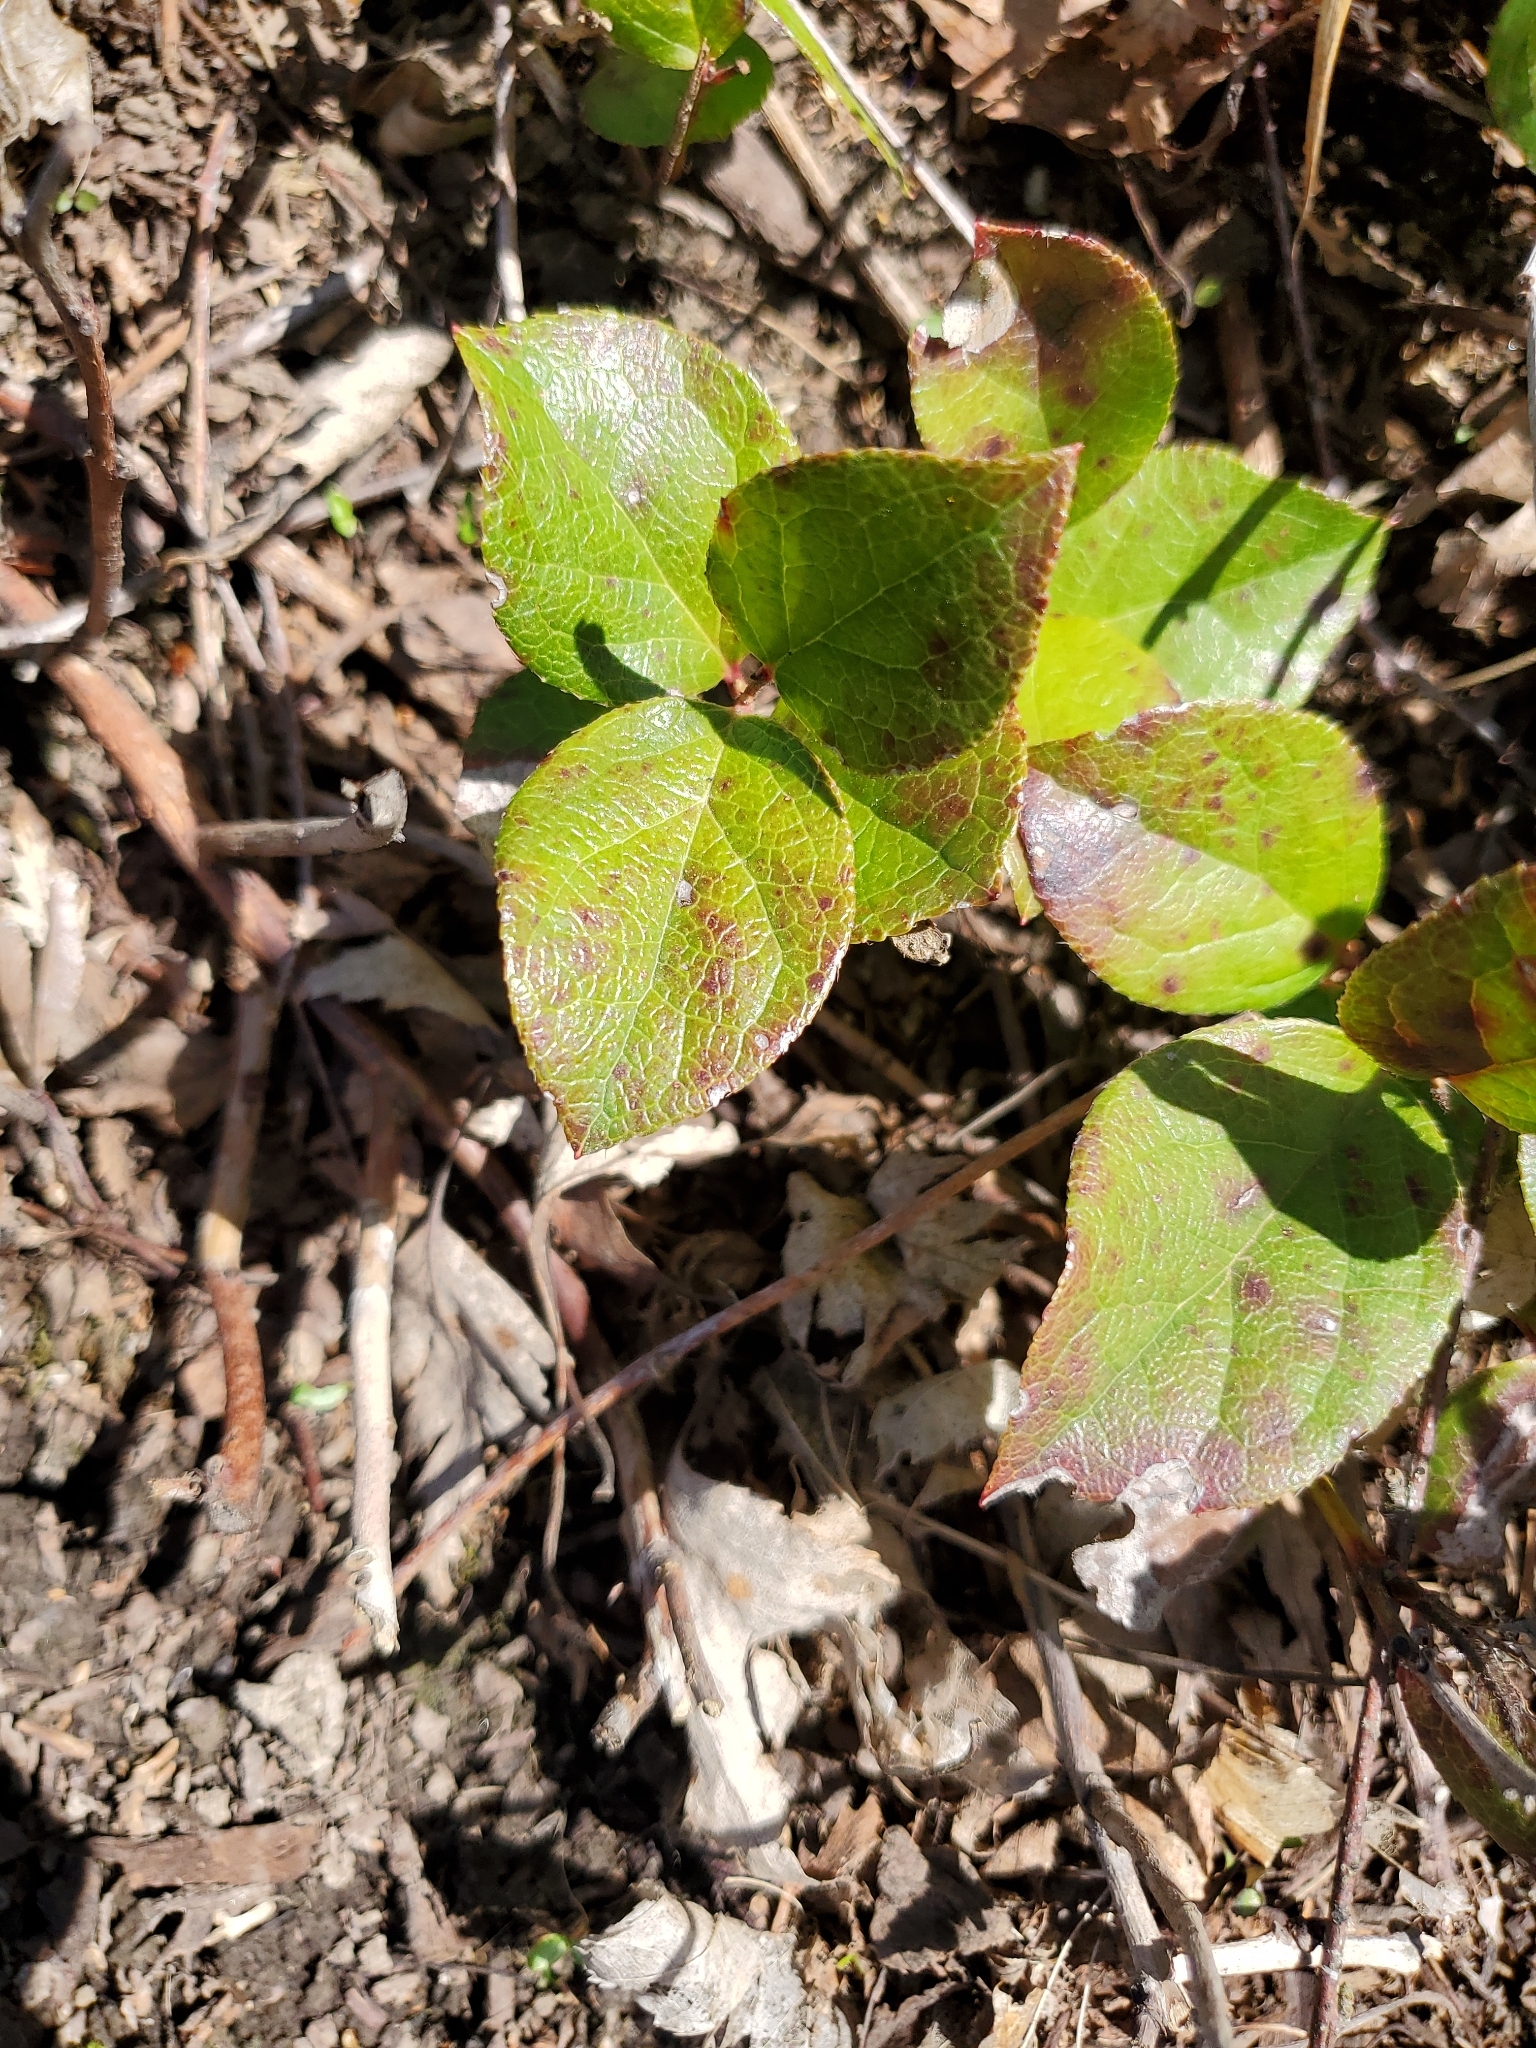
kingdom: Plantae
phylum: Tracheophyta
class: Magnoliopsida
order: Ericales
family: Ericaceae
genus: Gaultheria
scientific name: Gaultheria shallon
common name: Shallon
